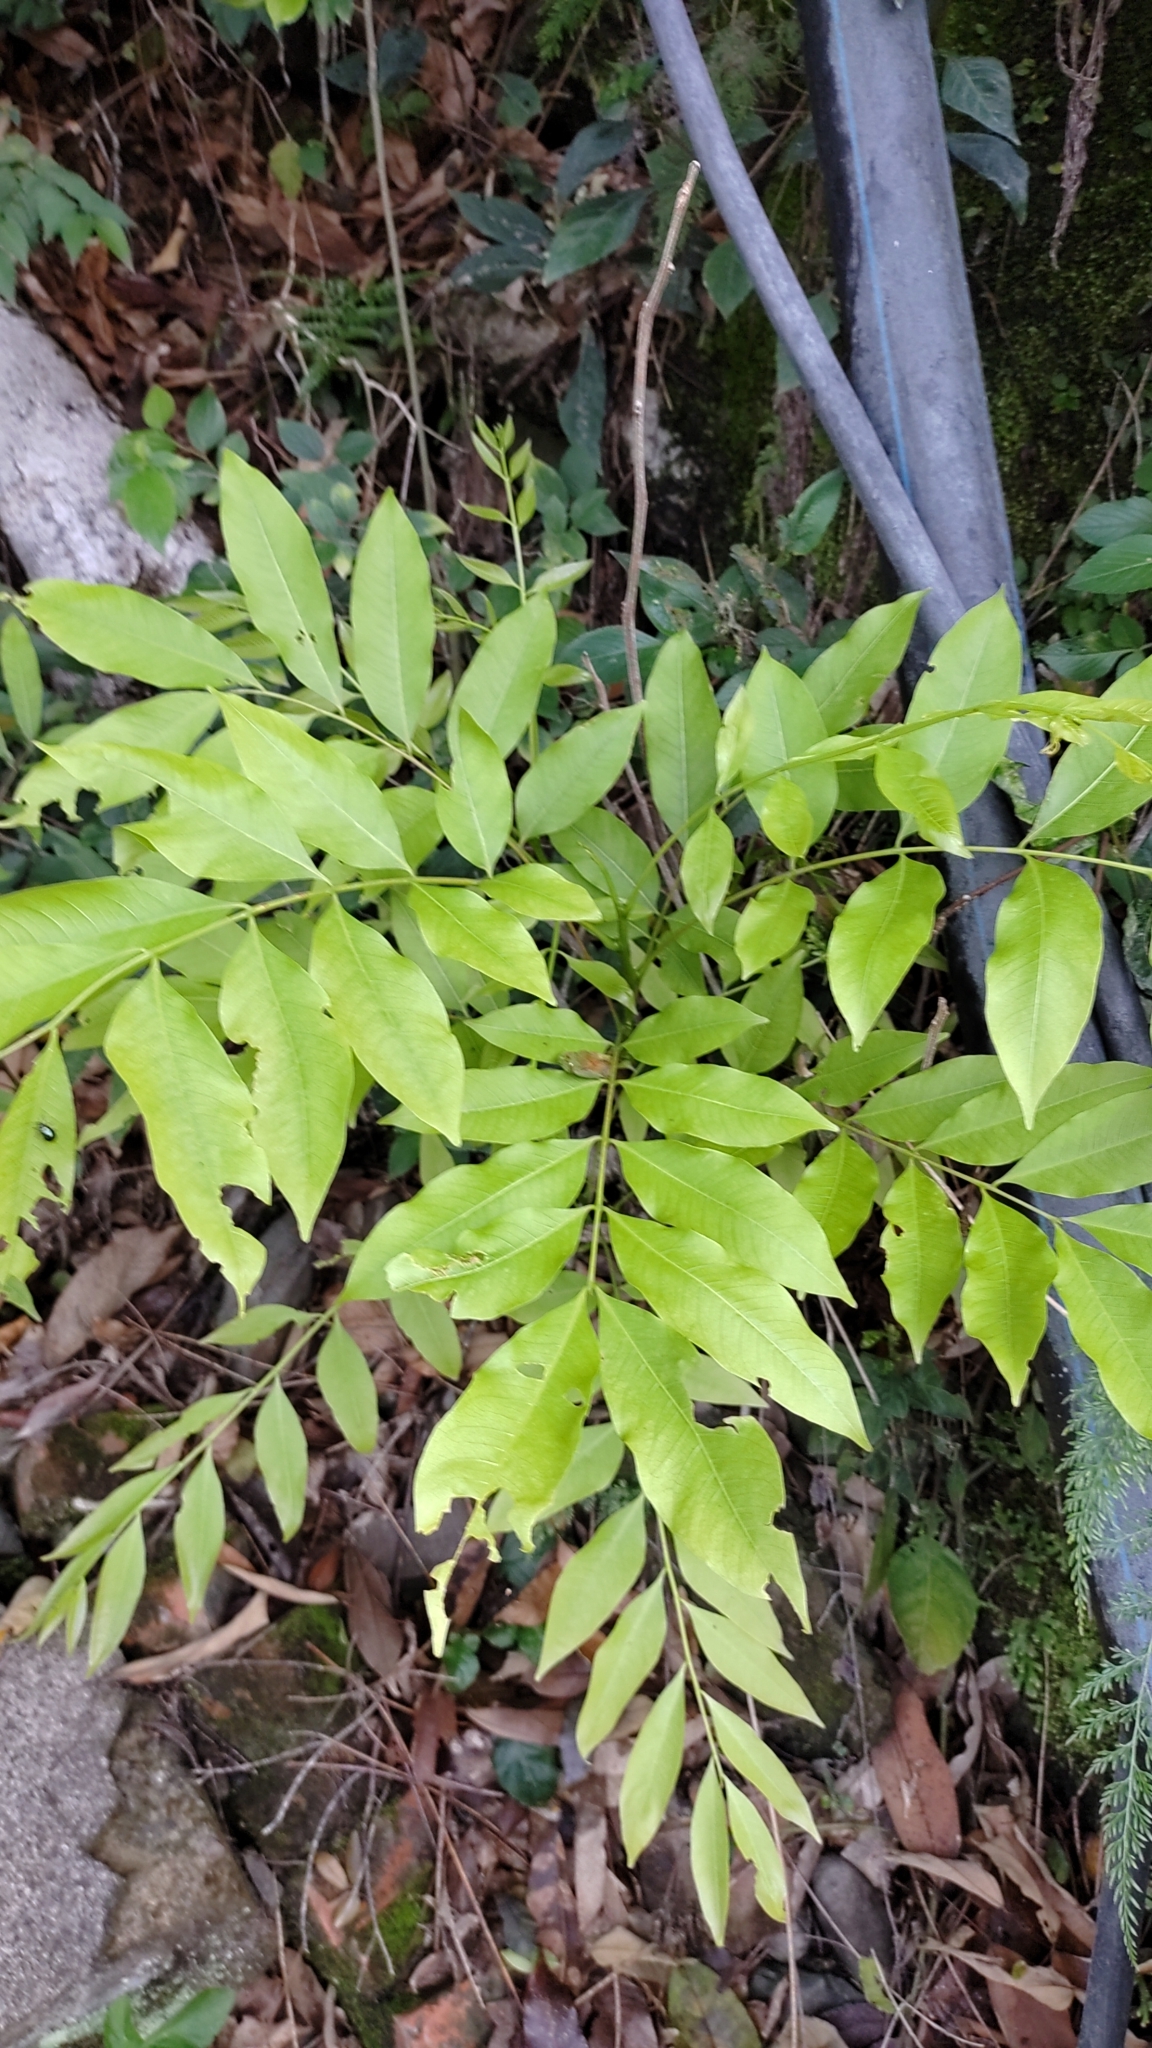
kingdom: Plantae
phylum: Tracheophyta
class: Magnoliopsida
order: Sapindales
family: Sapindaceae
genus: Sapindus
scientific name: Sapindus mukorossi
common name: Chinese soapberry
